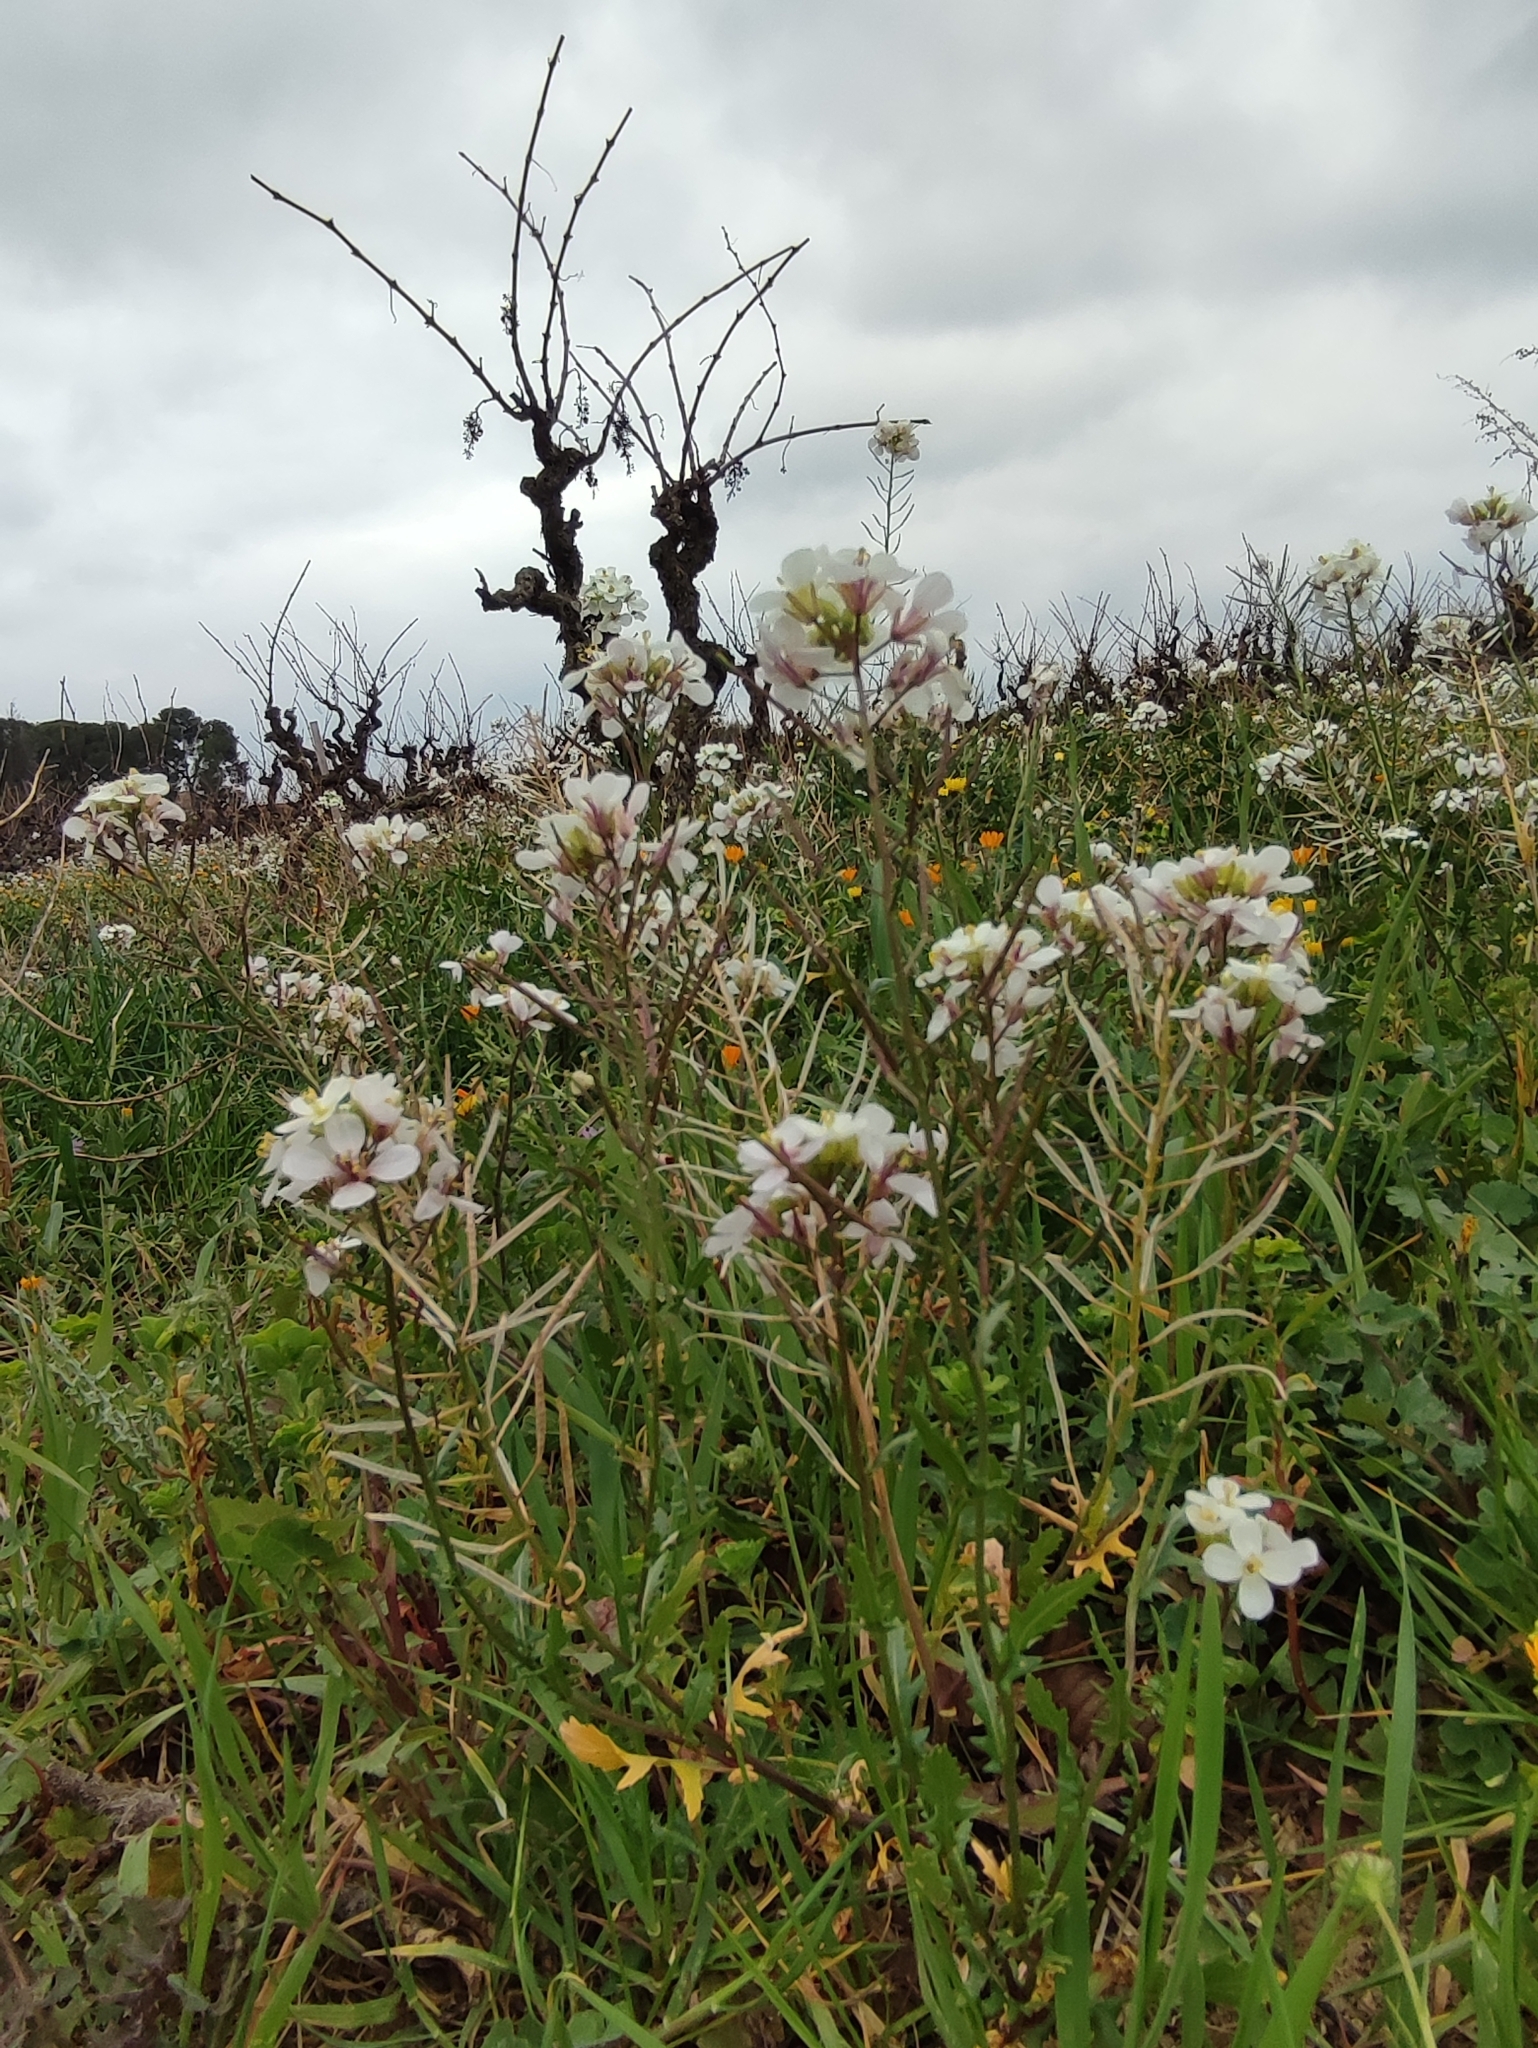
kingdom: Plantae
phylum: Tracheophyta
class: Magnoliopsida
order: Brassicales
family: Brassicaceae
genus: Diplotaxis
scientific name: Diplotaxis erucoides
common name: White rocket
